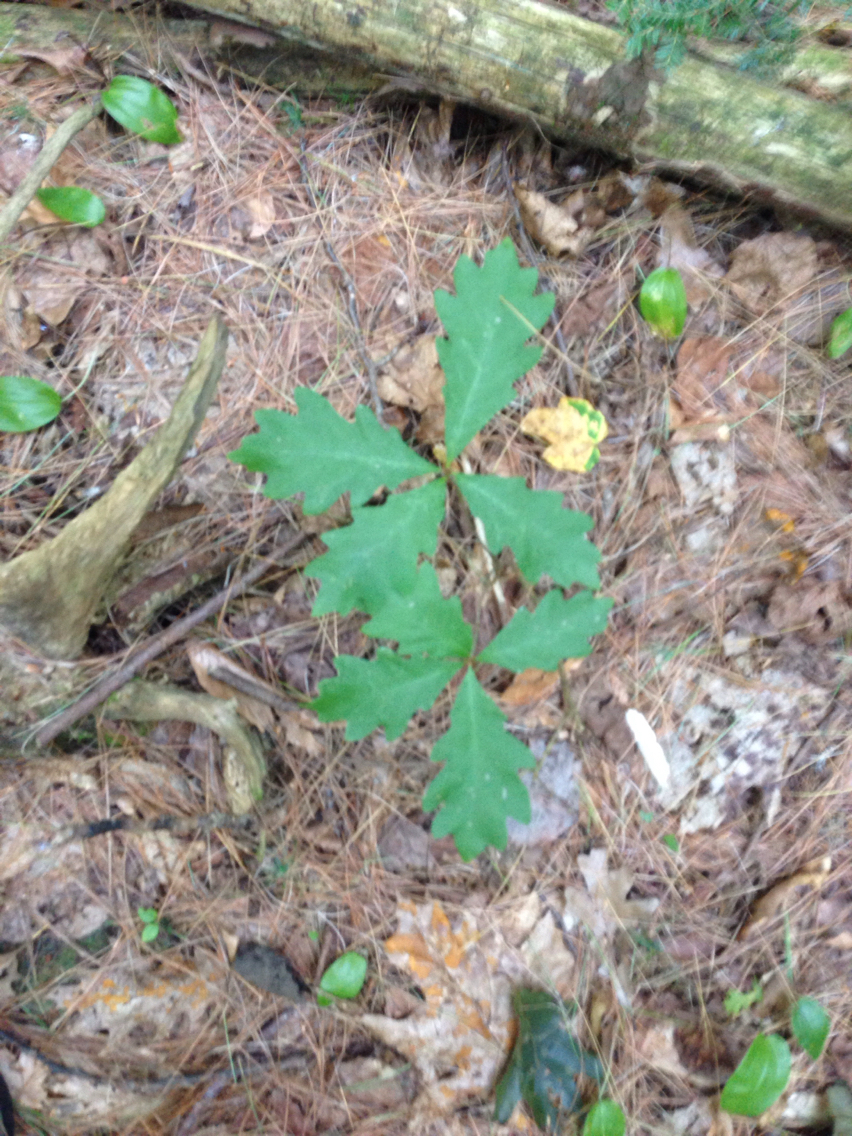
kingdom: Plantae
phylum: Tracheophyta
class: Magnoliopsida
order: Fagales
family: Fagaceae
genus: Quercus
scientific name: Quercus alba
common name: White oak
